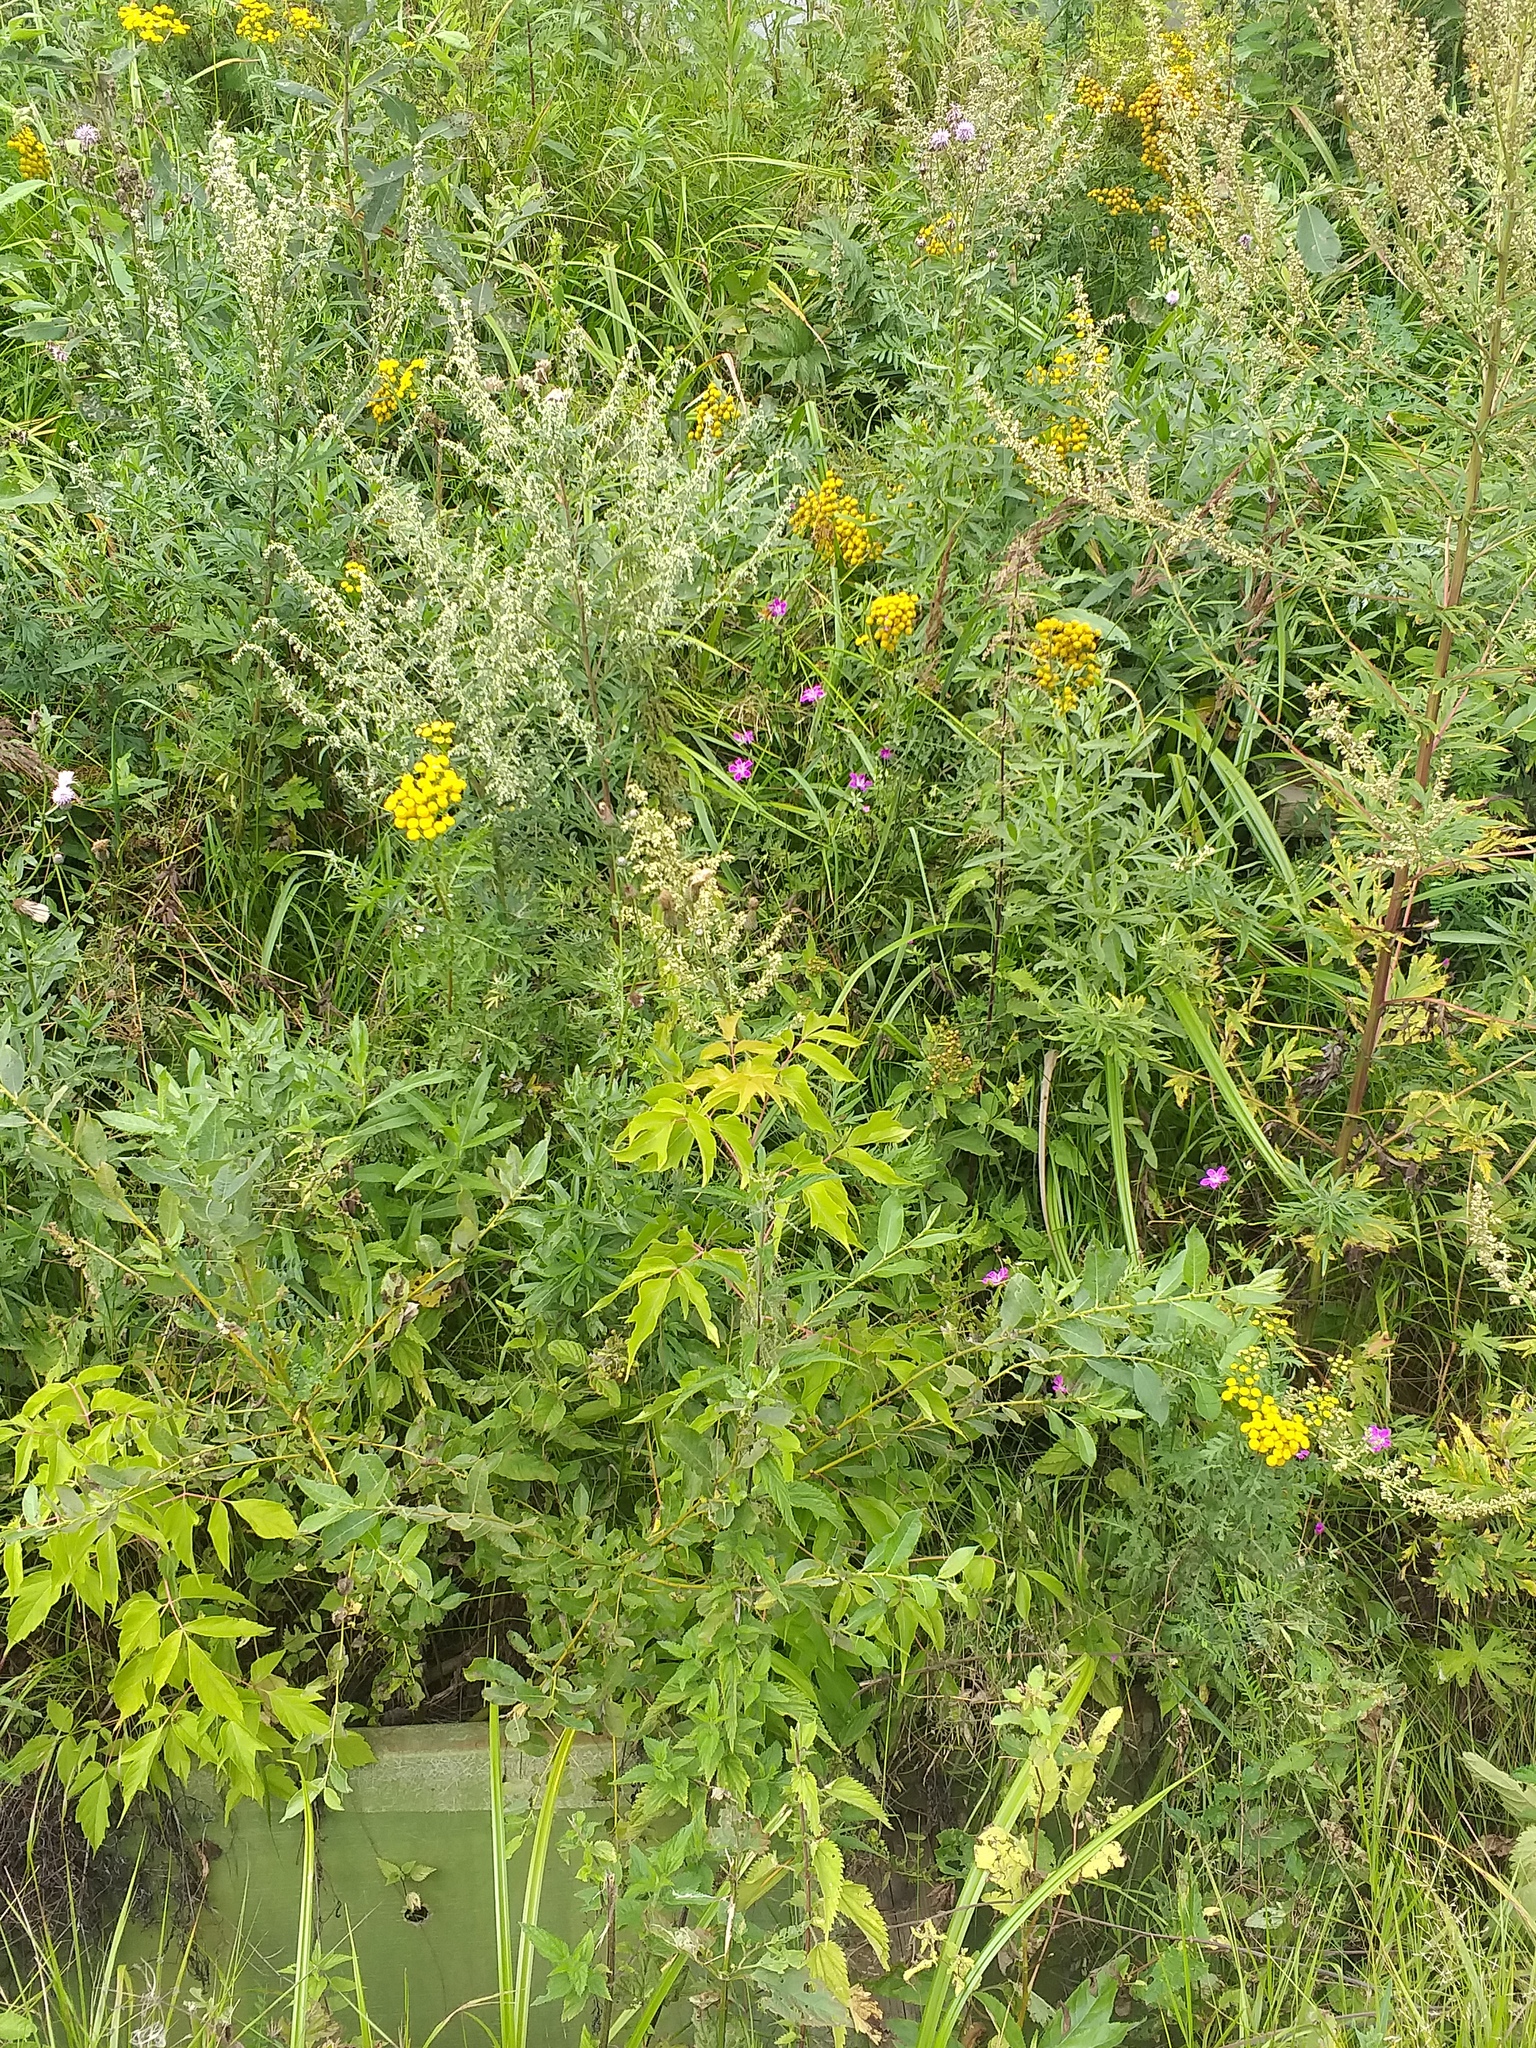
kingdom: Plantae
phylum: Tracheophyta
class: Magnoliopsida
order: Sapindales
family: Sapindaceae
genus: Acer
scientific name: Acer negundo
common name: Ashleaf maple
